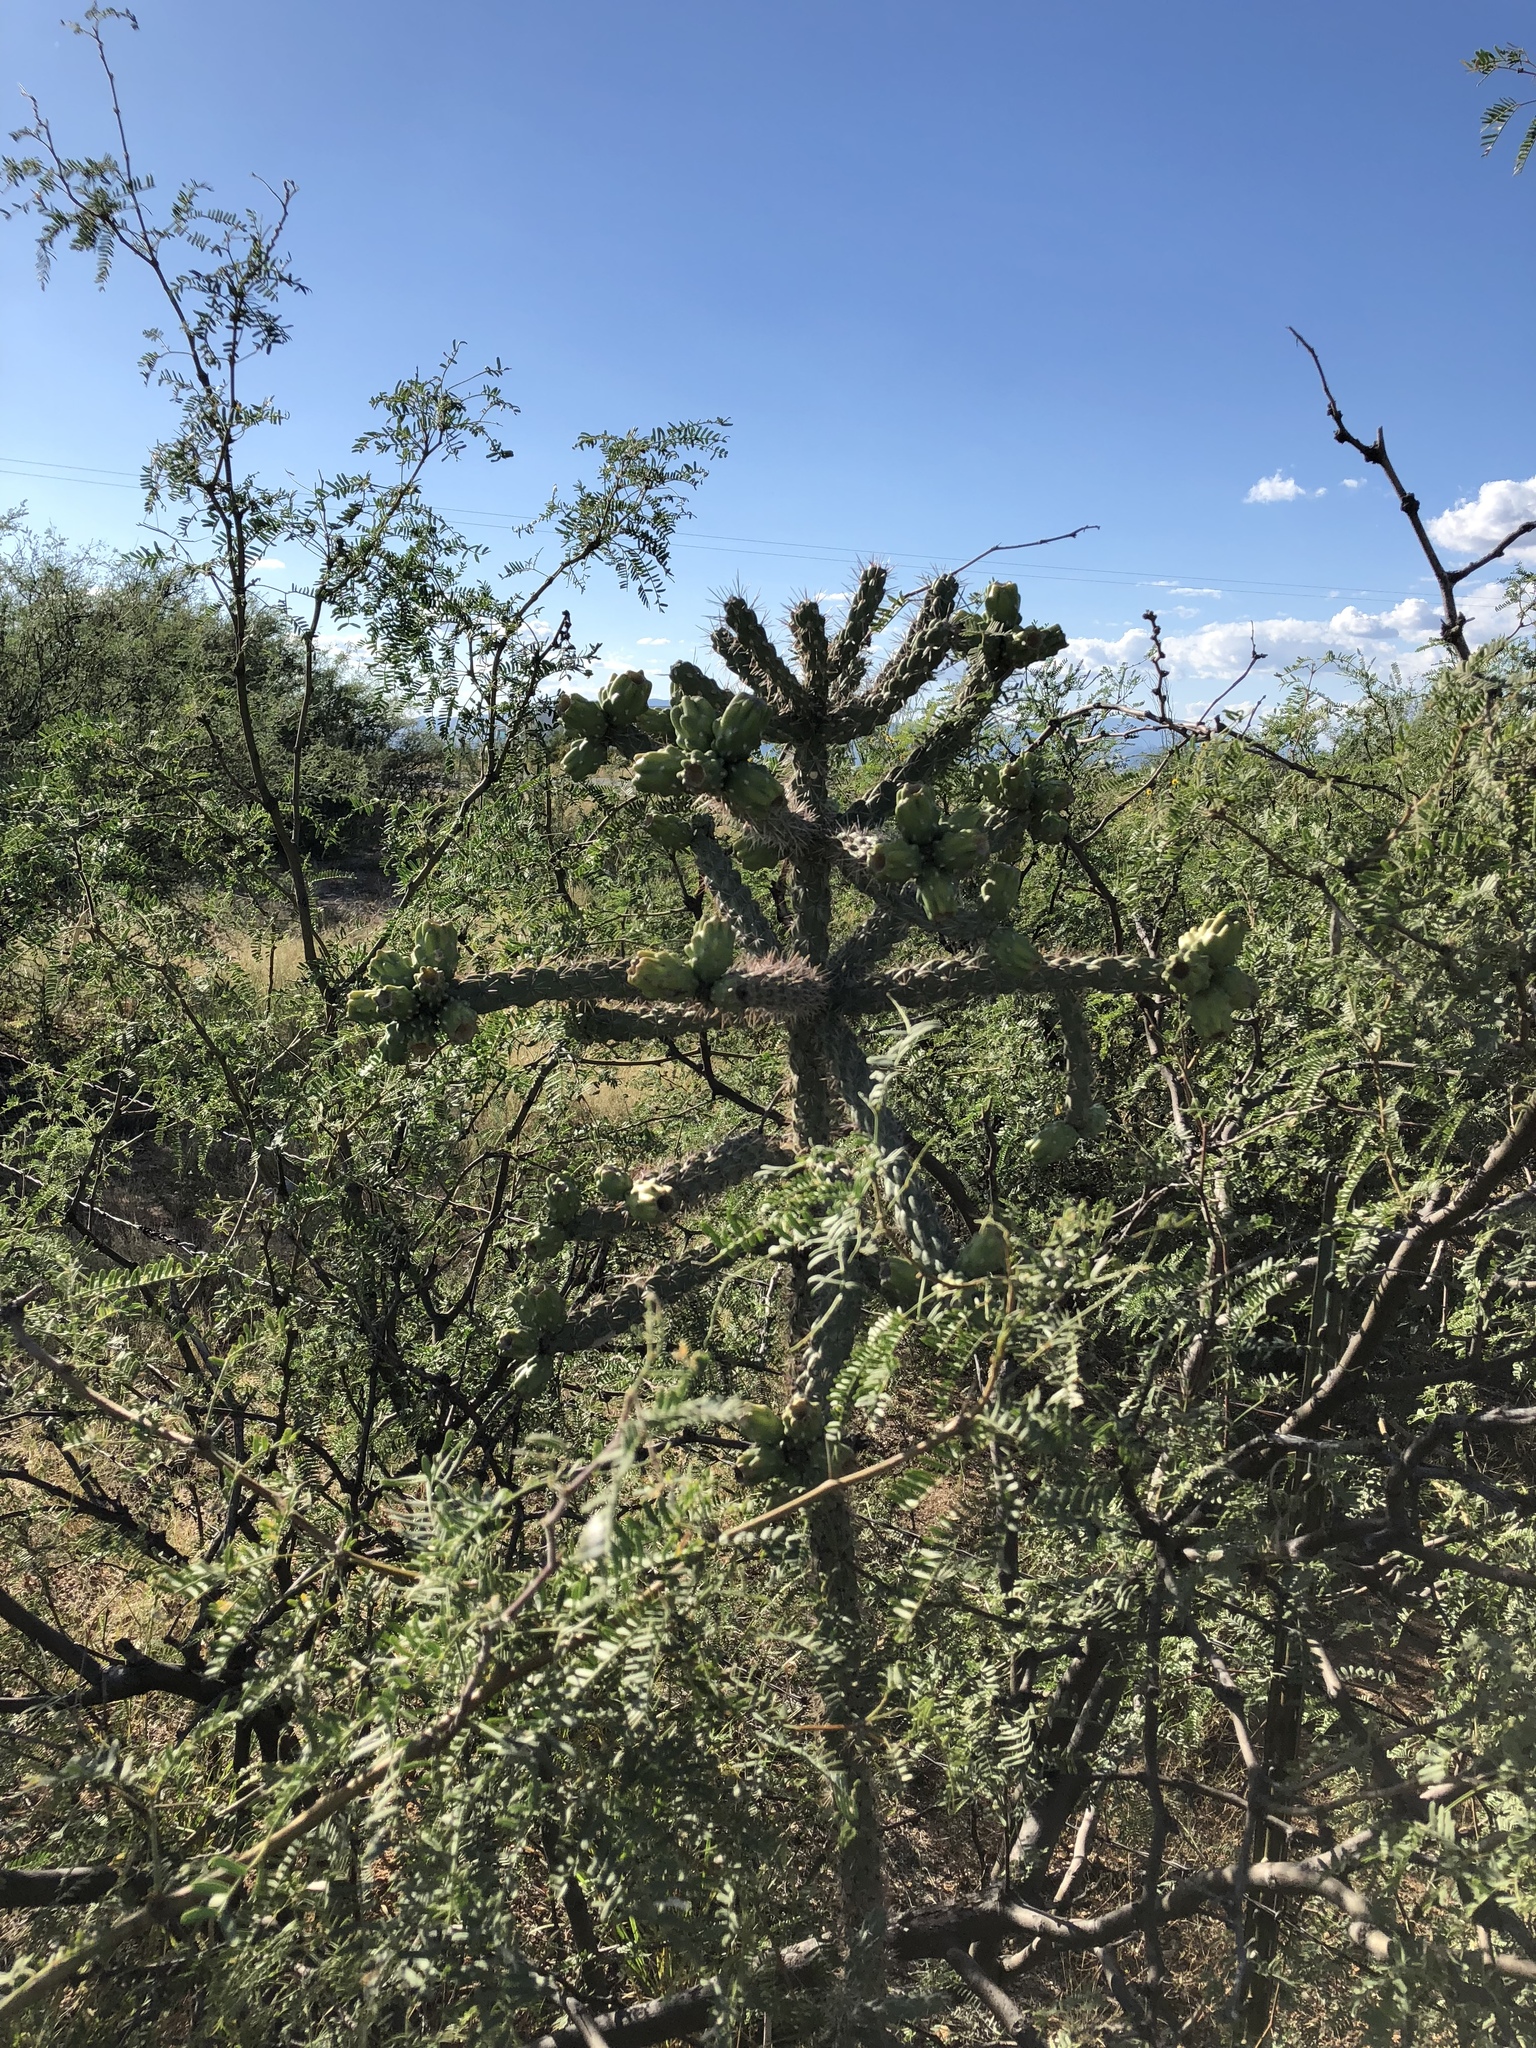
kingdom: Plantae
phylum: Tracheophyta
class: Magnoliopsida
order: Caryophyllales
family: Cactaceae
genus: Cylindropuntia
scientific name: Cylindropuntia imbricata
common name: Candelabrum cactus
